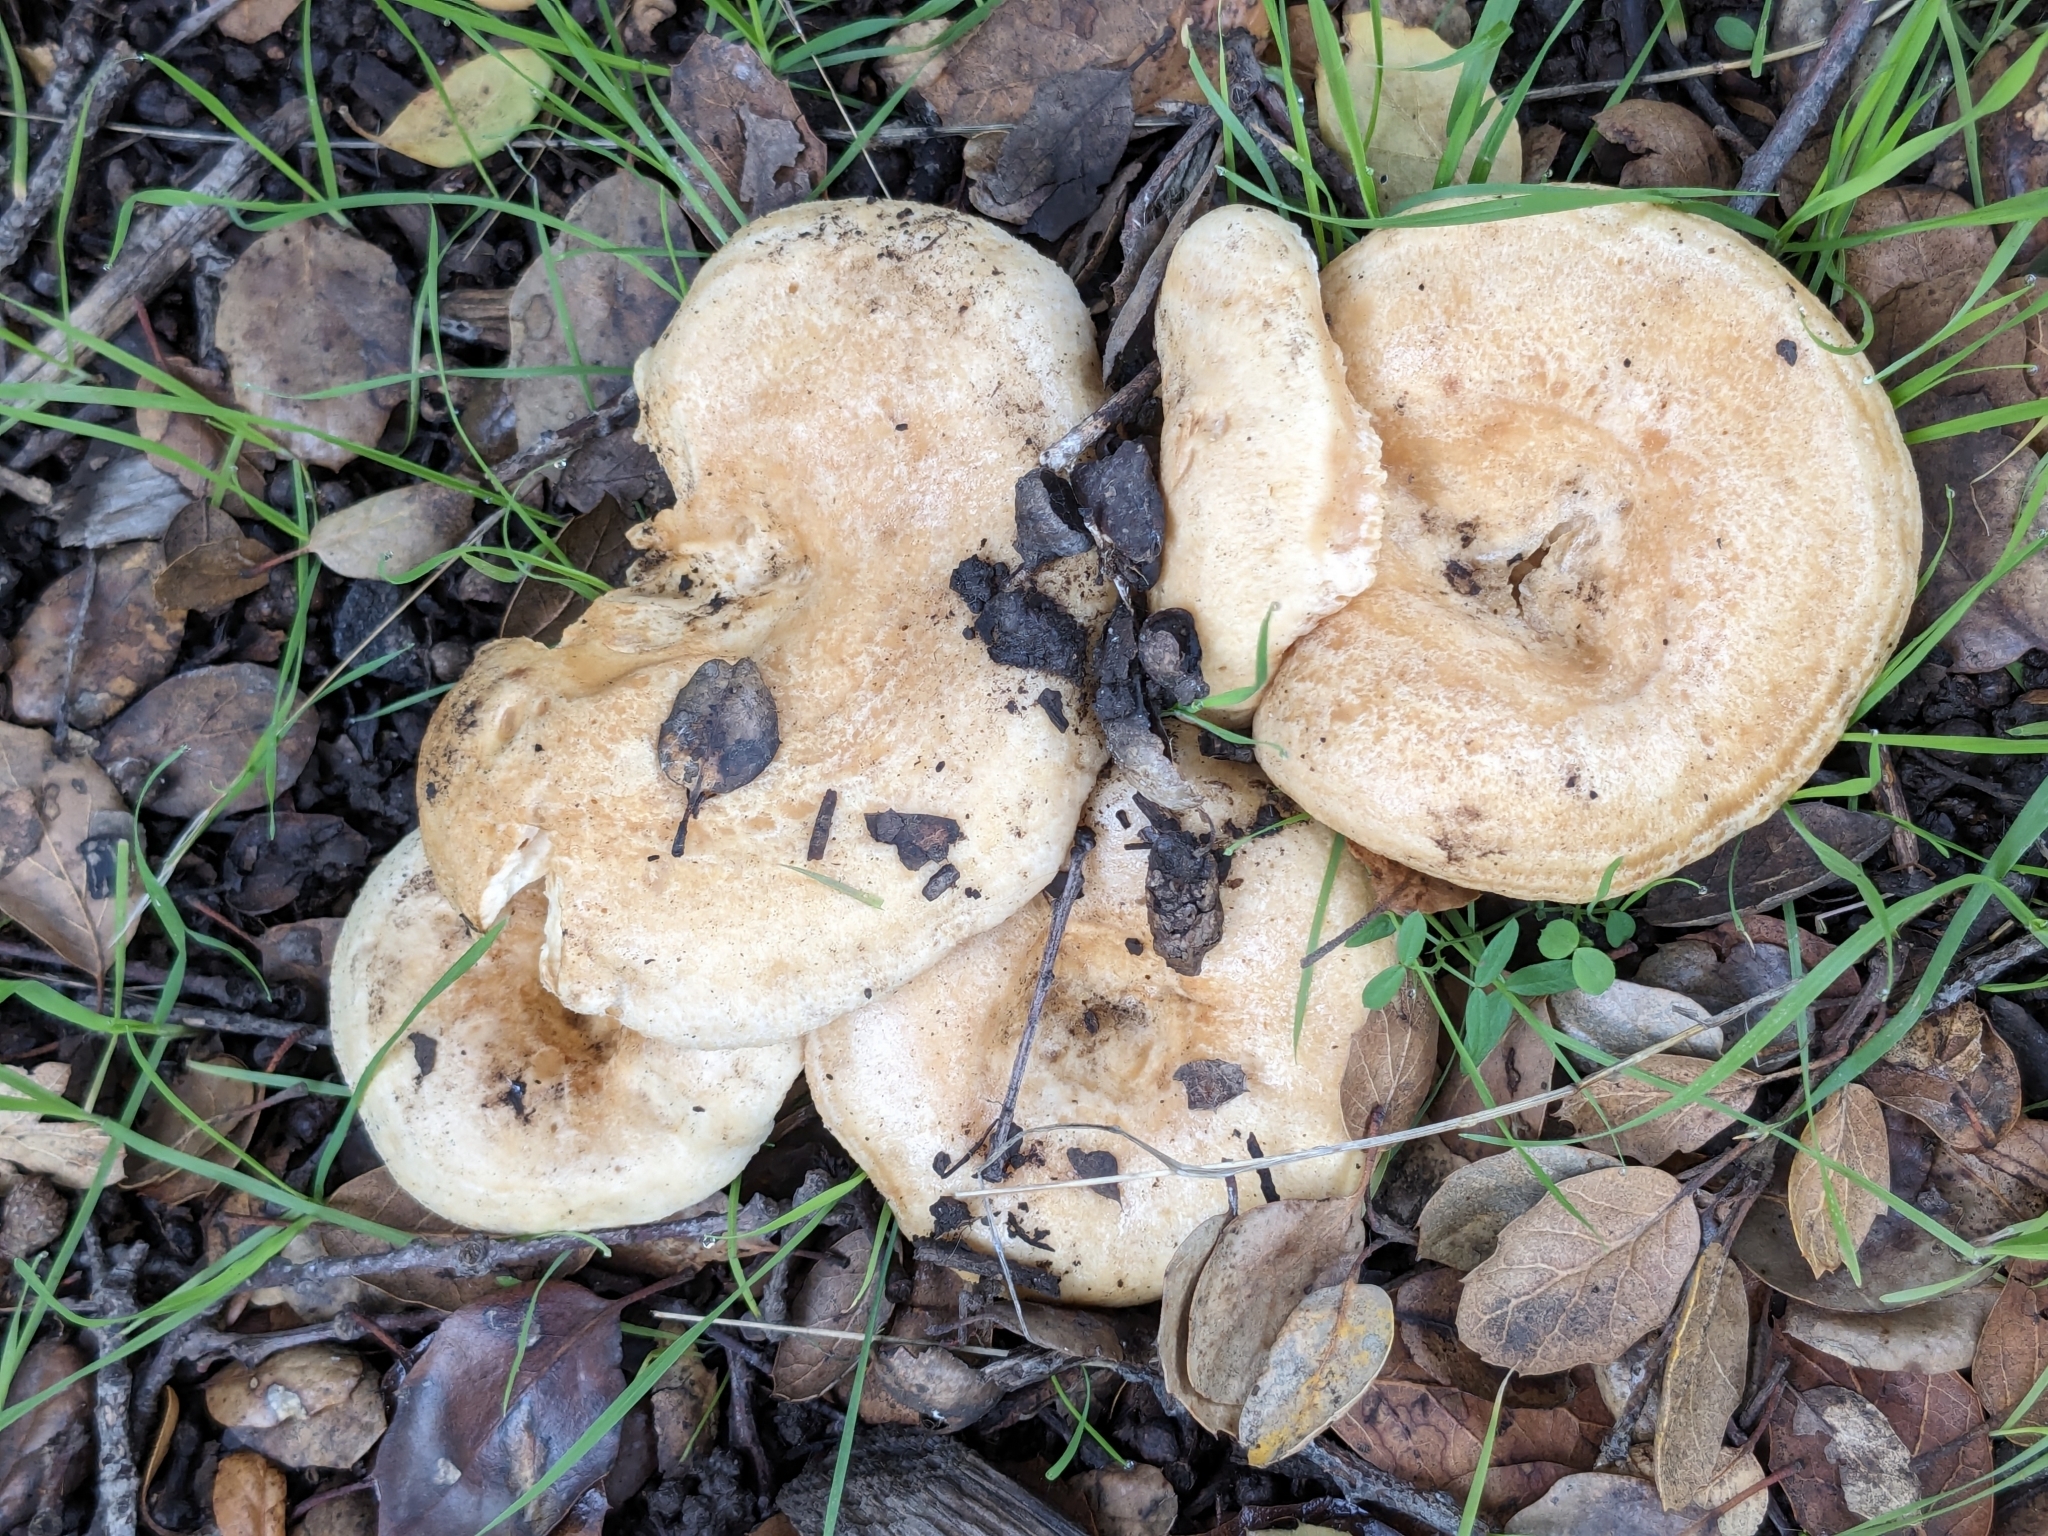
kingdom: Fungi
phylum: Basidiomycota
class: Agaricomycetes
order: Russulales
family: Russulaceae
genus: Lactarius
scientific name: Lactarius alnicola
